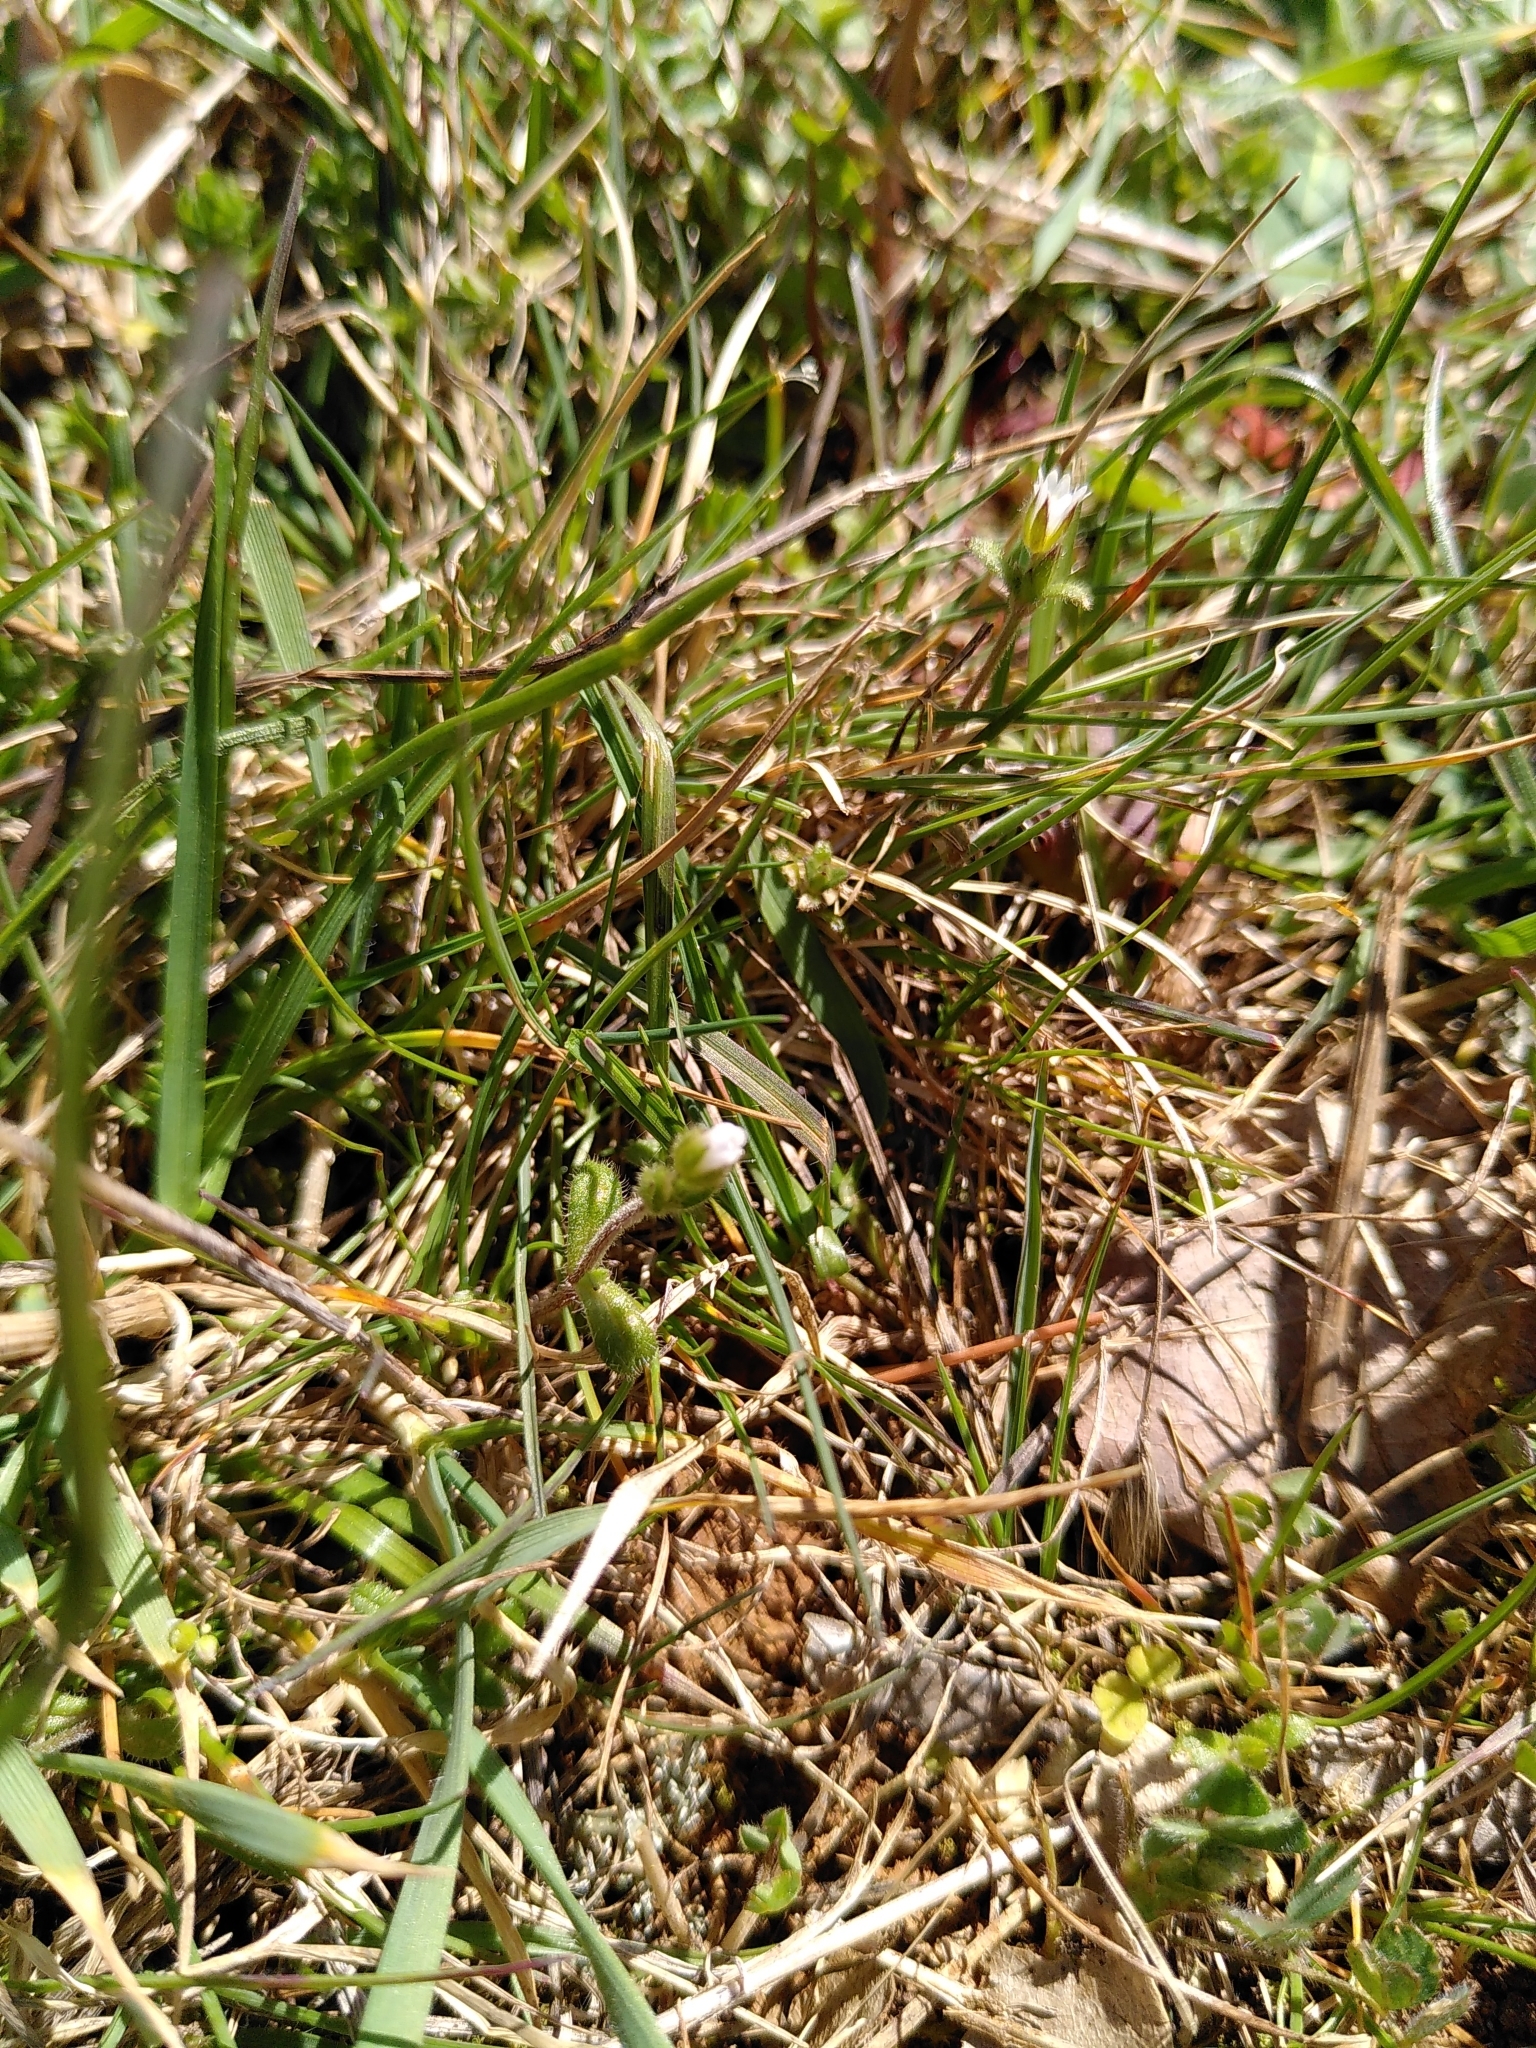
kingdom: Plantae
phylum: Tracheophyta
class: Magnoliopsida
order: Caryophyllales
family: Caryophyllaceae
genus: Cerastium
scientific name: Cerastium pumilum
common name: Dwarf mouse-ear
